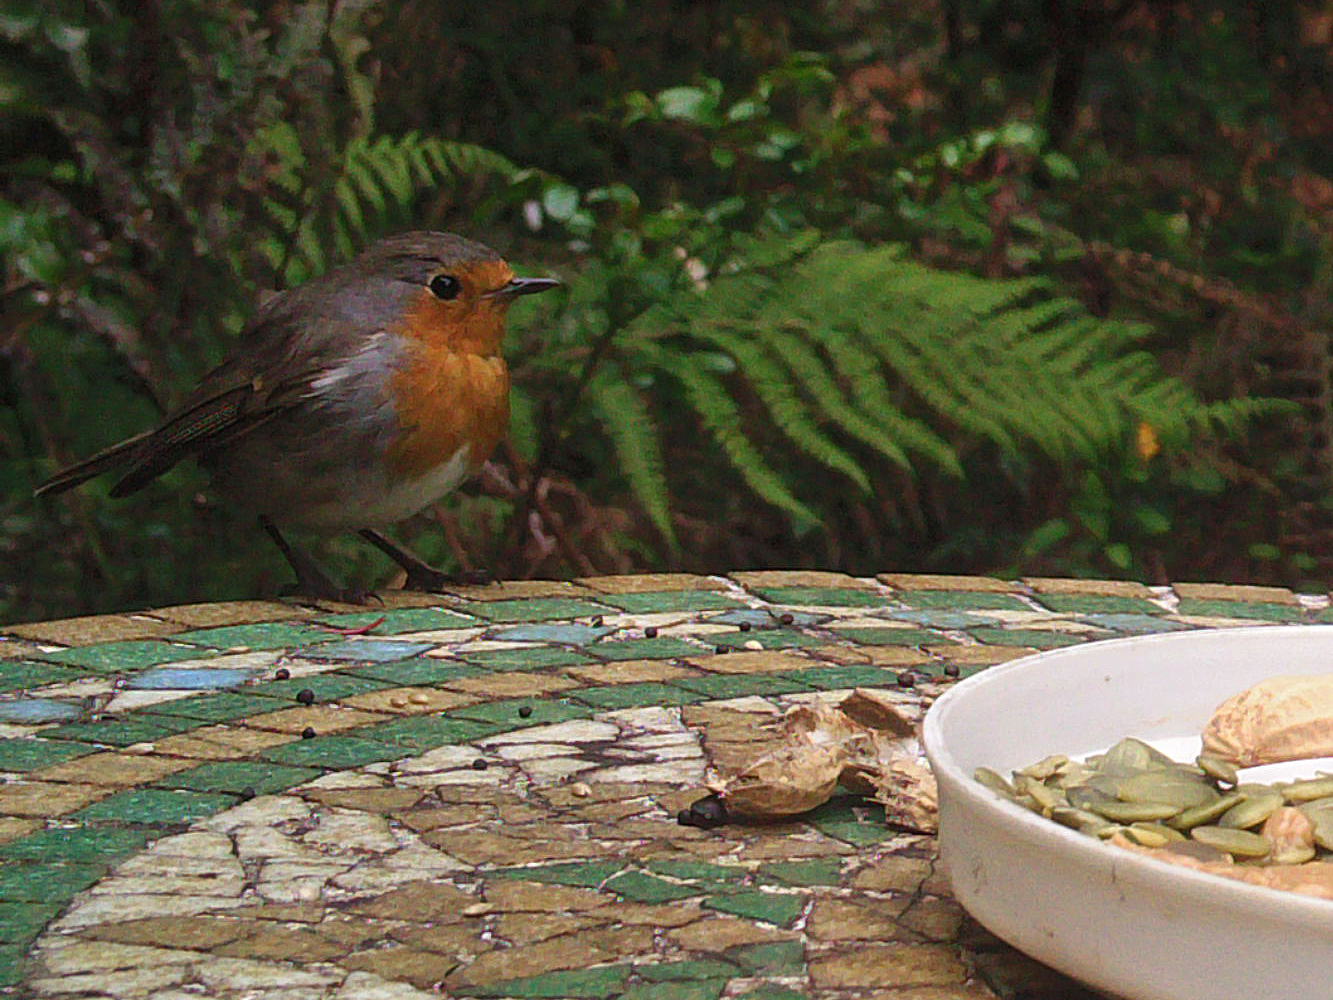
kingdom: Animalia
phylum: Chordata
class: Aves
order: Passeriformes
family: Muscicapidae
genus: Erithacus
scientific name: Erithacus rubecula
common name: European robin
